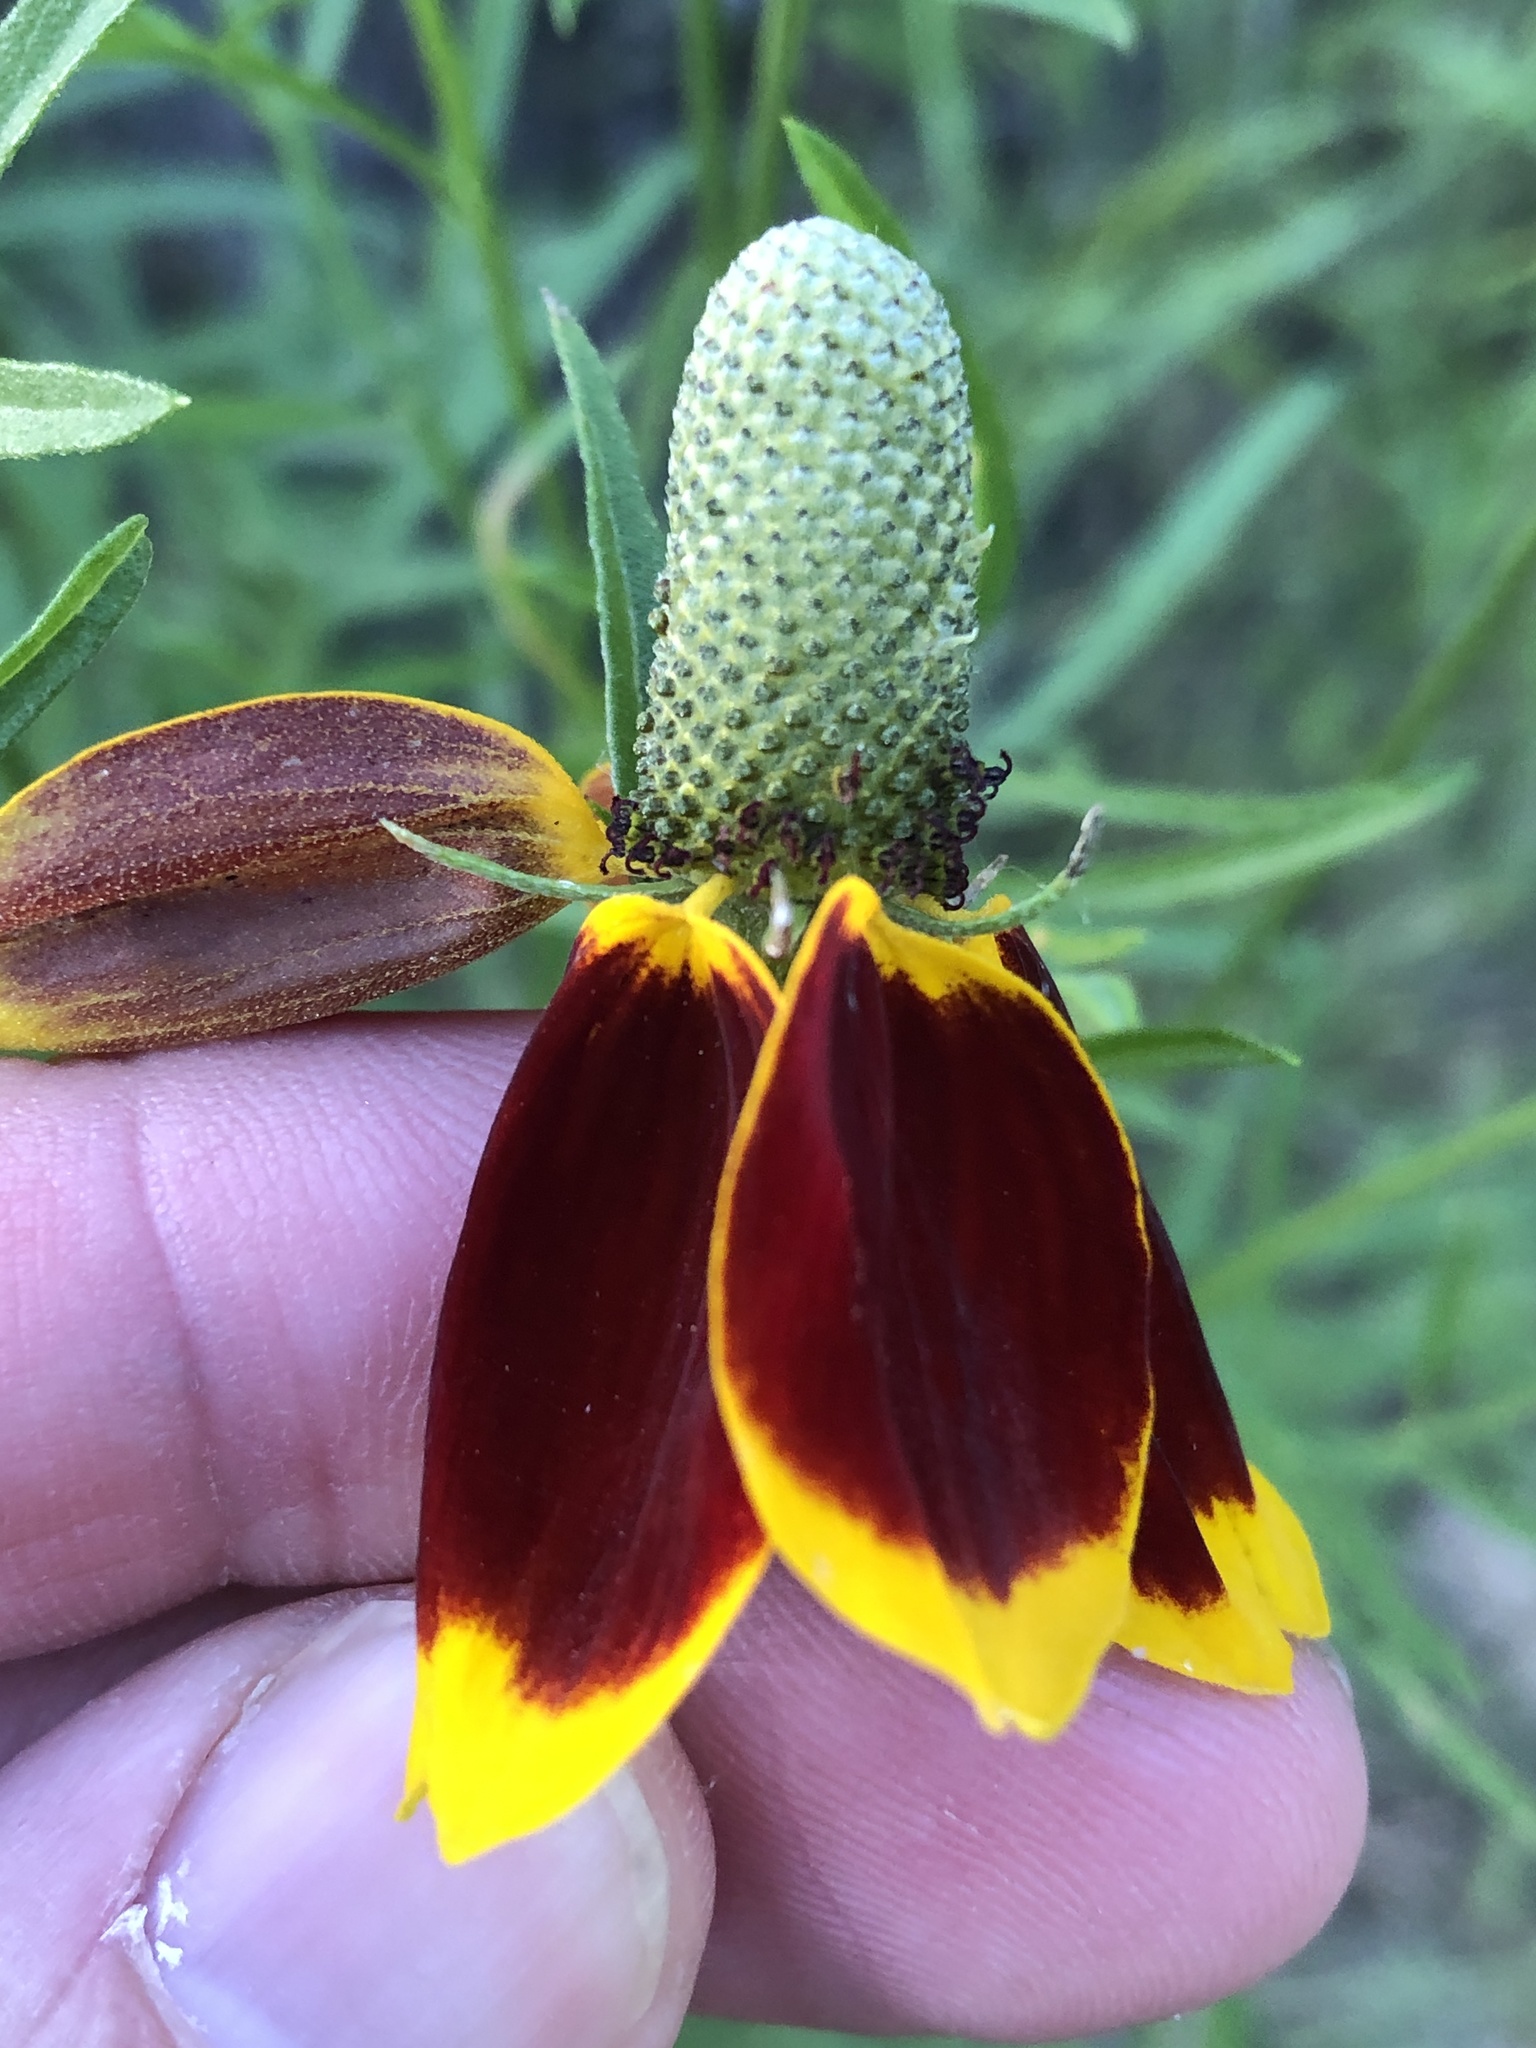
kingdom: Plantae
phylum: Tracheophyta
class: Magnoliopsida
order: Asterales
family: Asteraceae
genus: Ratibida
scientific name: Ratibida columnifera
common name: Prairie coneflower
